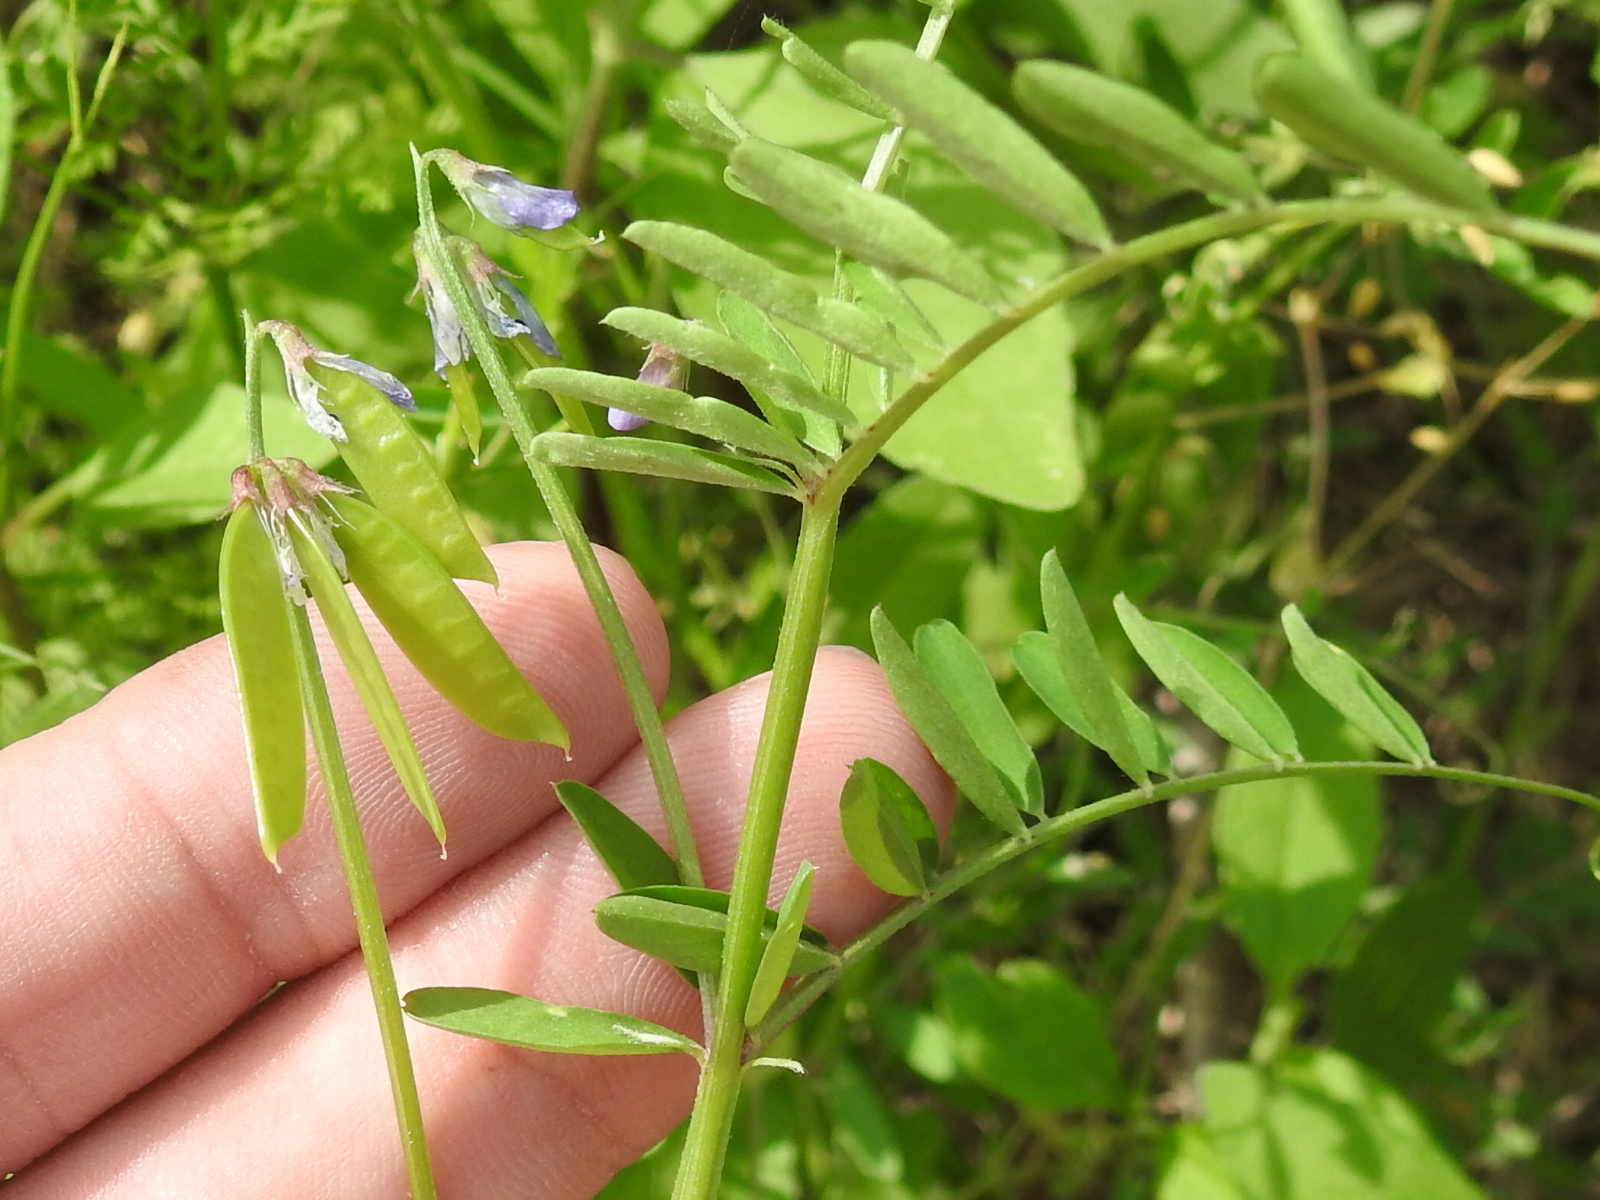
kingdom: Plantae
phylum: Tracheophyta
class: Magnoliopsida
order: Fabales
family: Fabaceae
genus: Vicia
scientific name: Vicia ludoviciana
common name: Louisiana vetch
